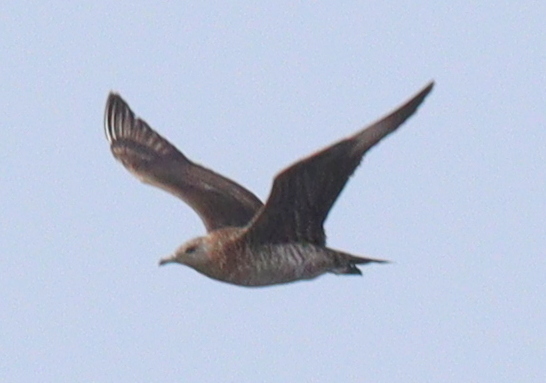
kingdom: Animalia
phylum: Chordata
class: Aves
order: Charadriiformes
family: Stercorariidae
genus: Stercorarius
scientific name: Stercorarius parasiticus
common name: Parasitic jaeger
